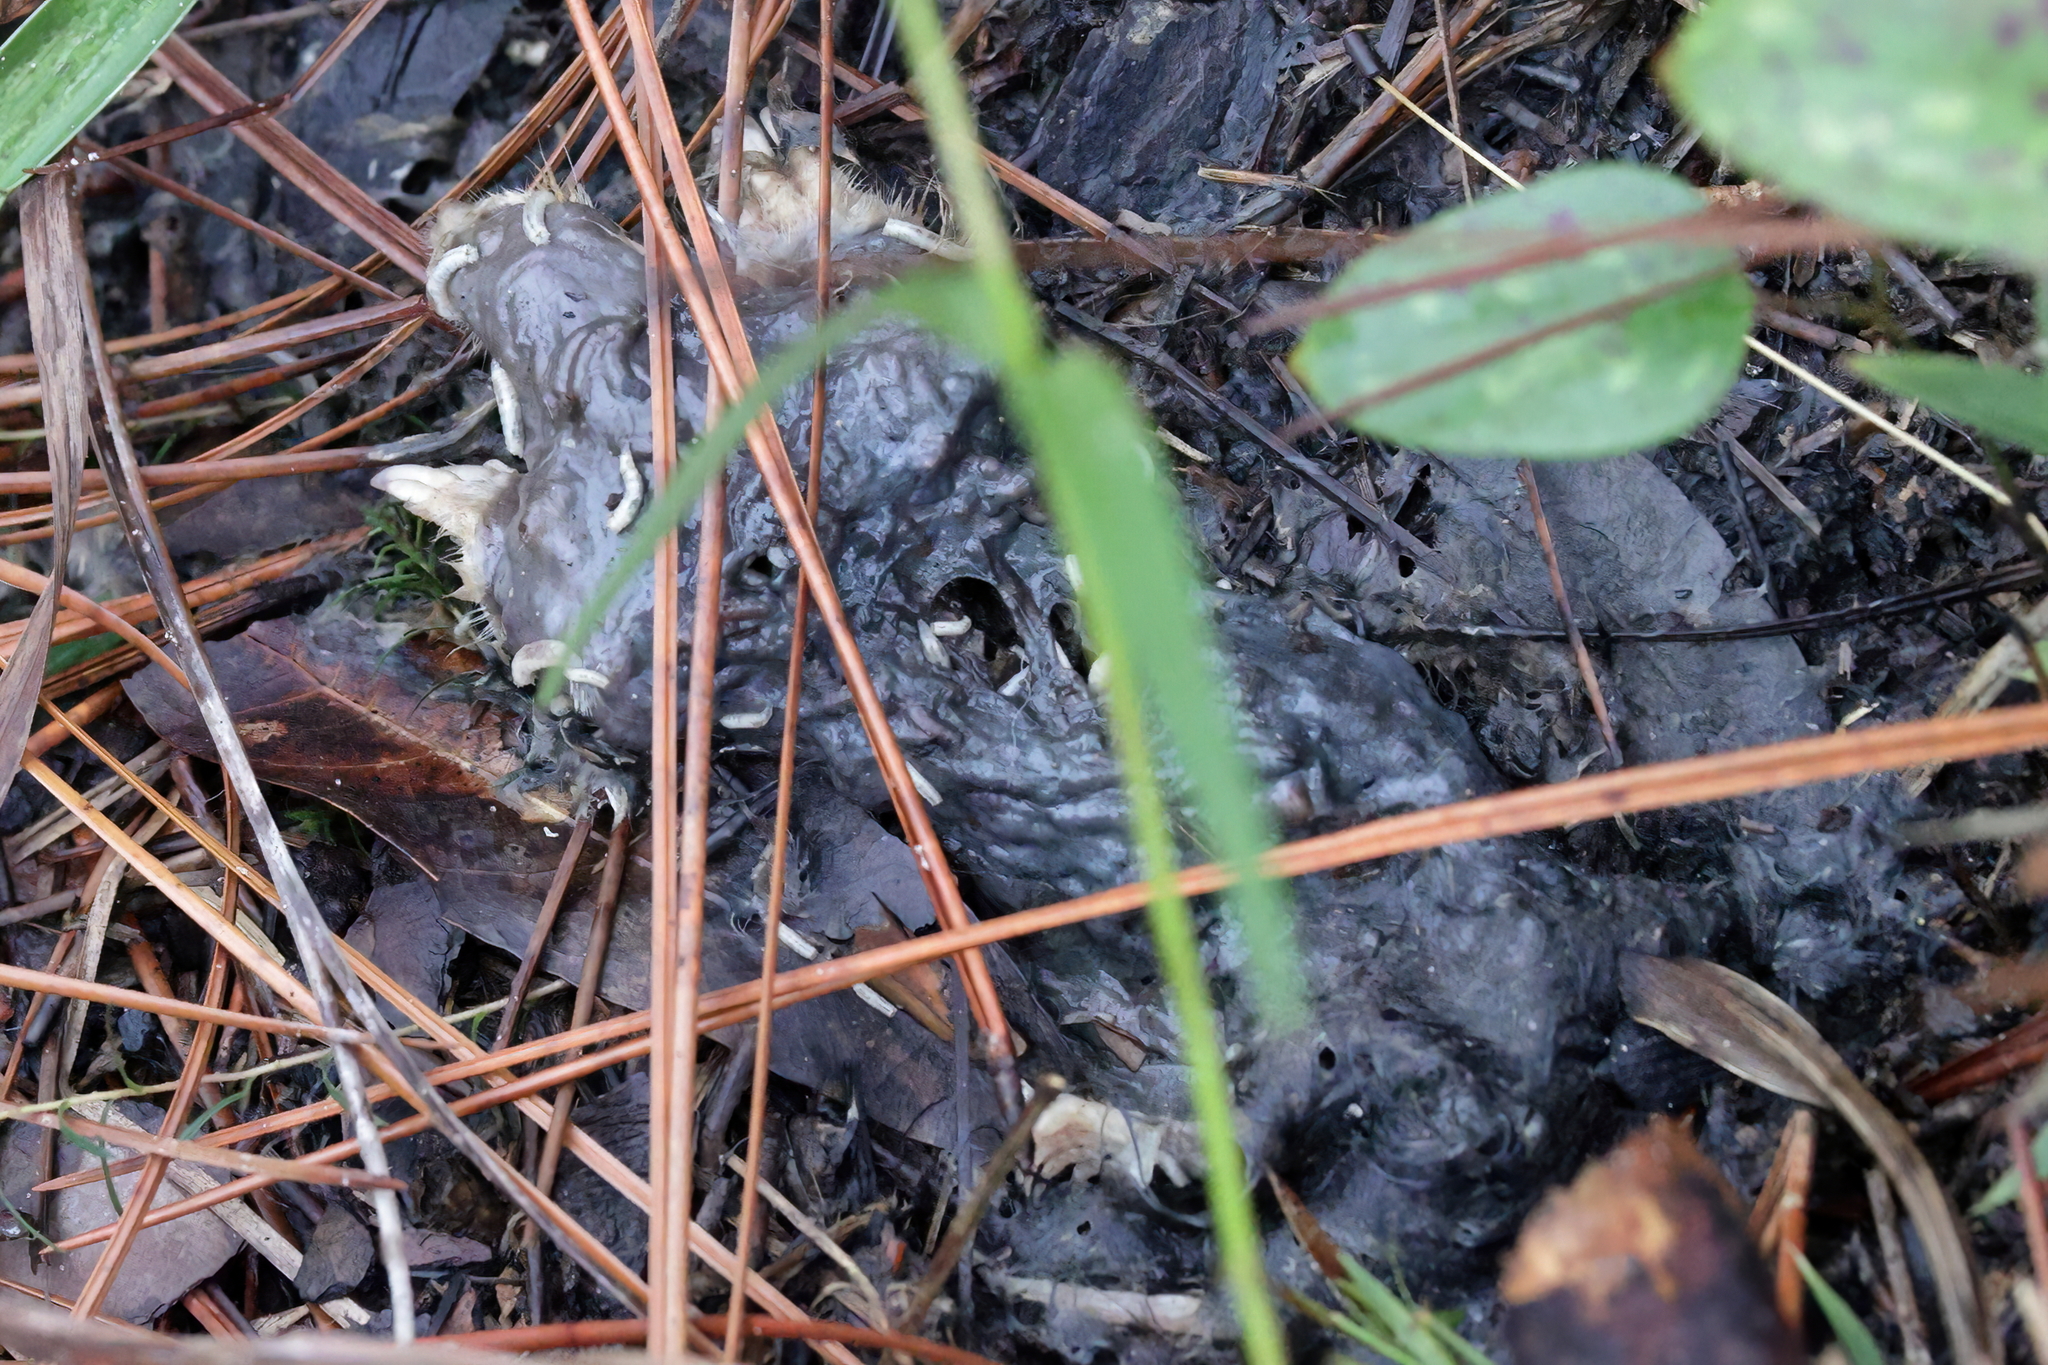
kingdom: Animalia
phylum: Chordata
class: Mammalia
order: Soricomorpha
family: Talpidae
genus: Scalopus
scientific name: Scalopus aquaticus
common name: Eastern mole
